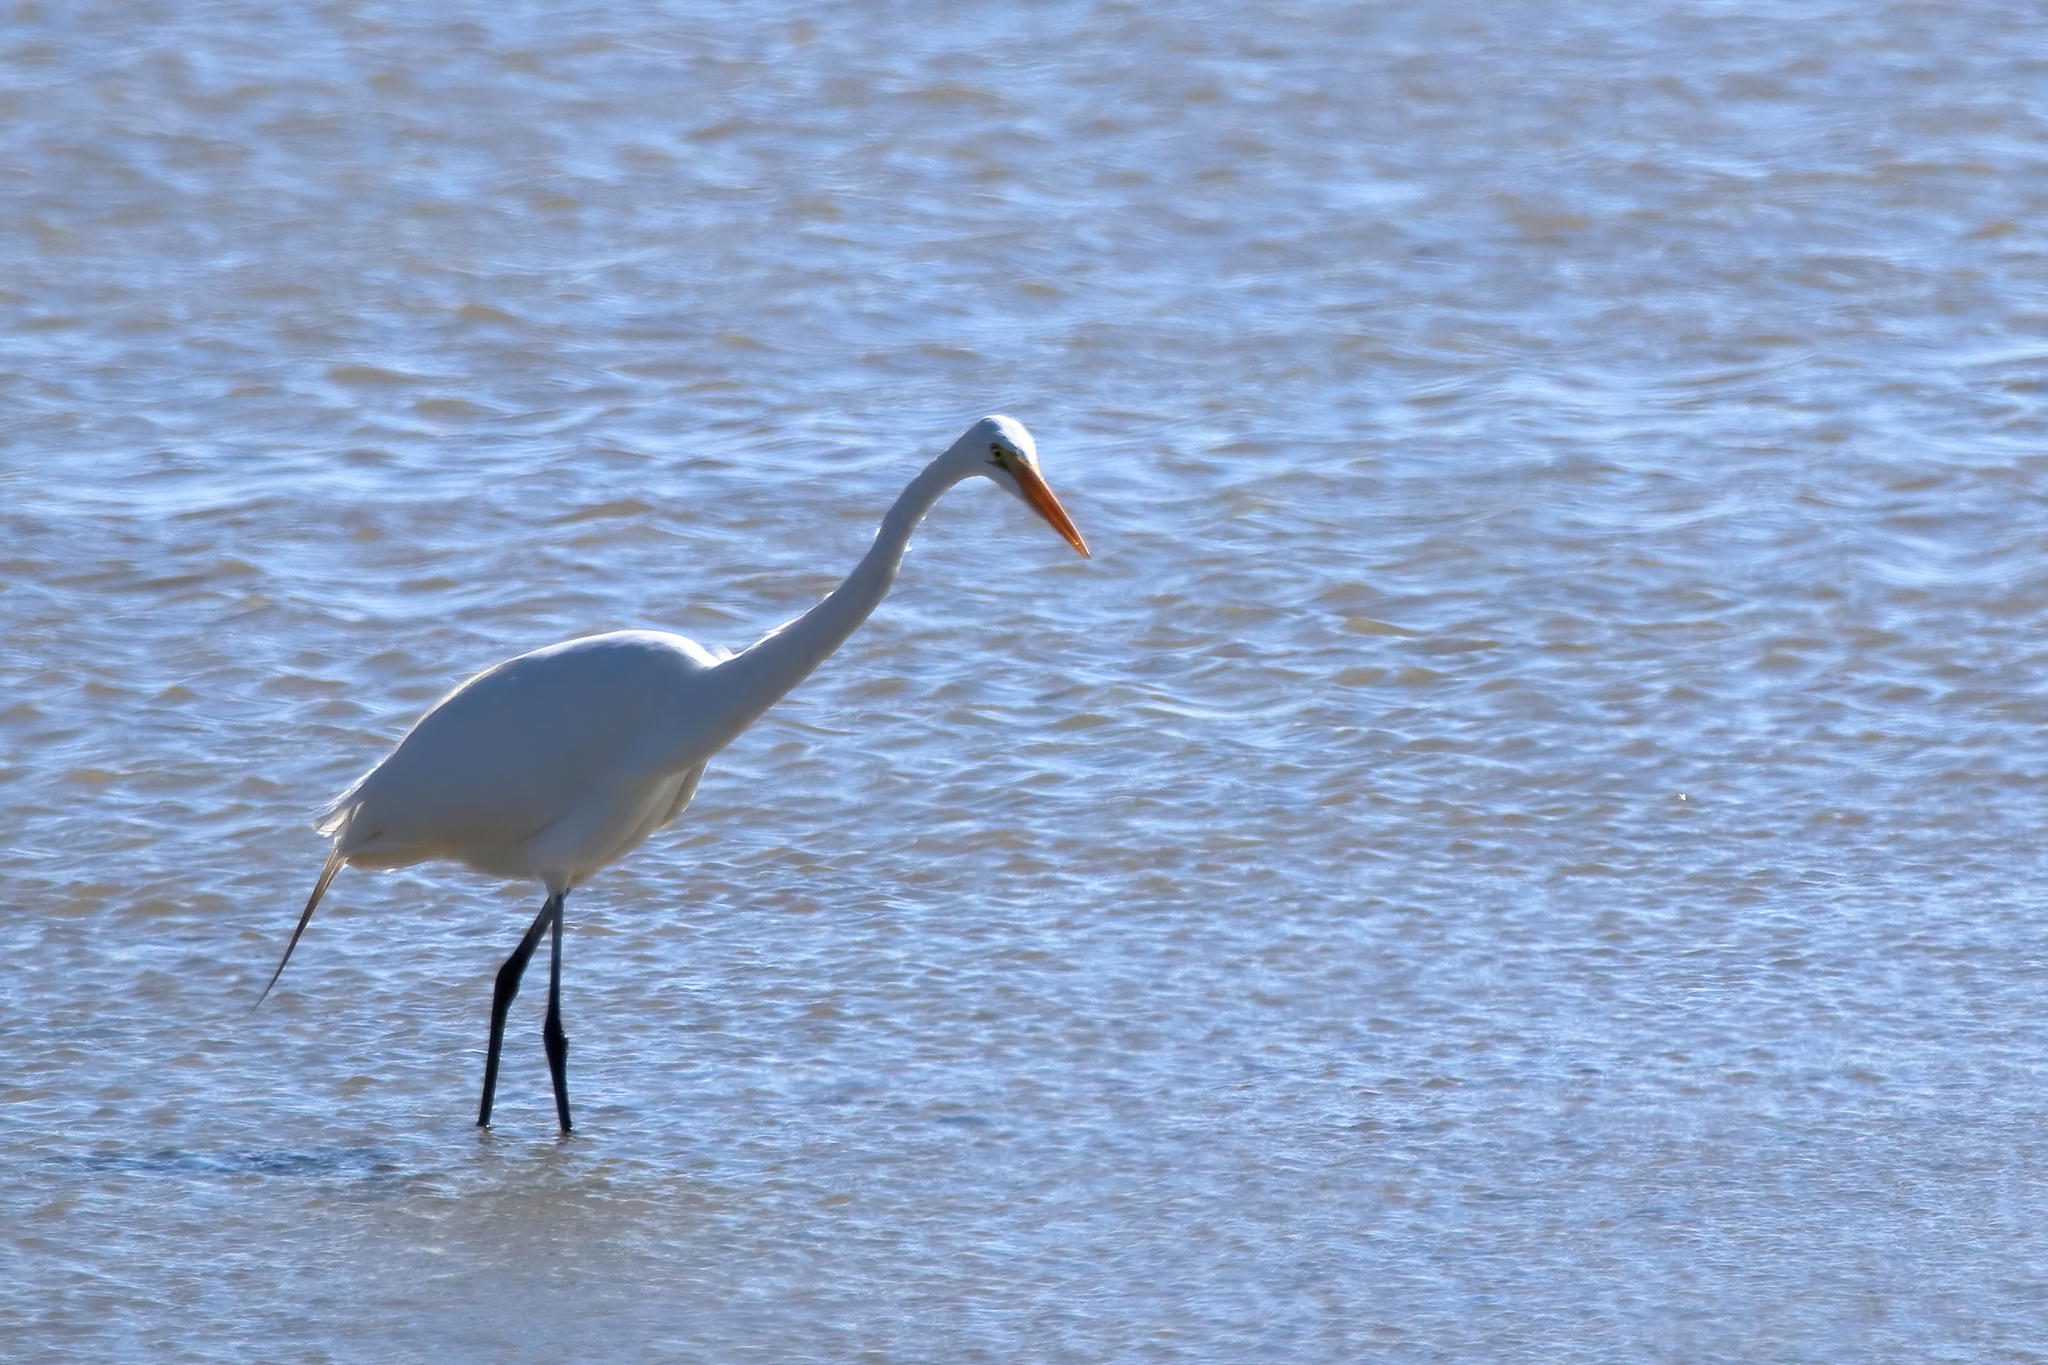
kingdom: Animalia
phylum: Chordata
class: Aves
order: Pelecaniformes
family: Ardeidae
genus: Ardea
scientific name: Ardea alba
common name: Great egret
